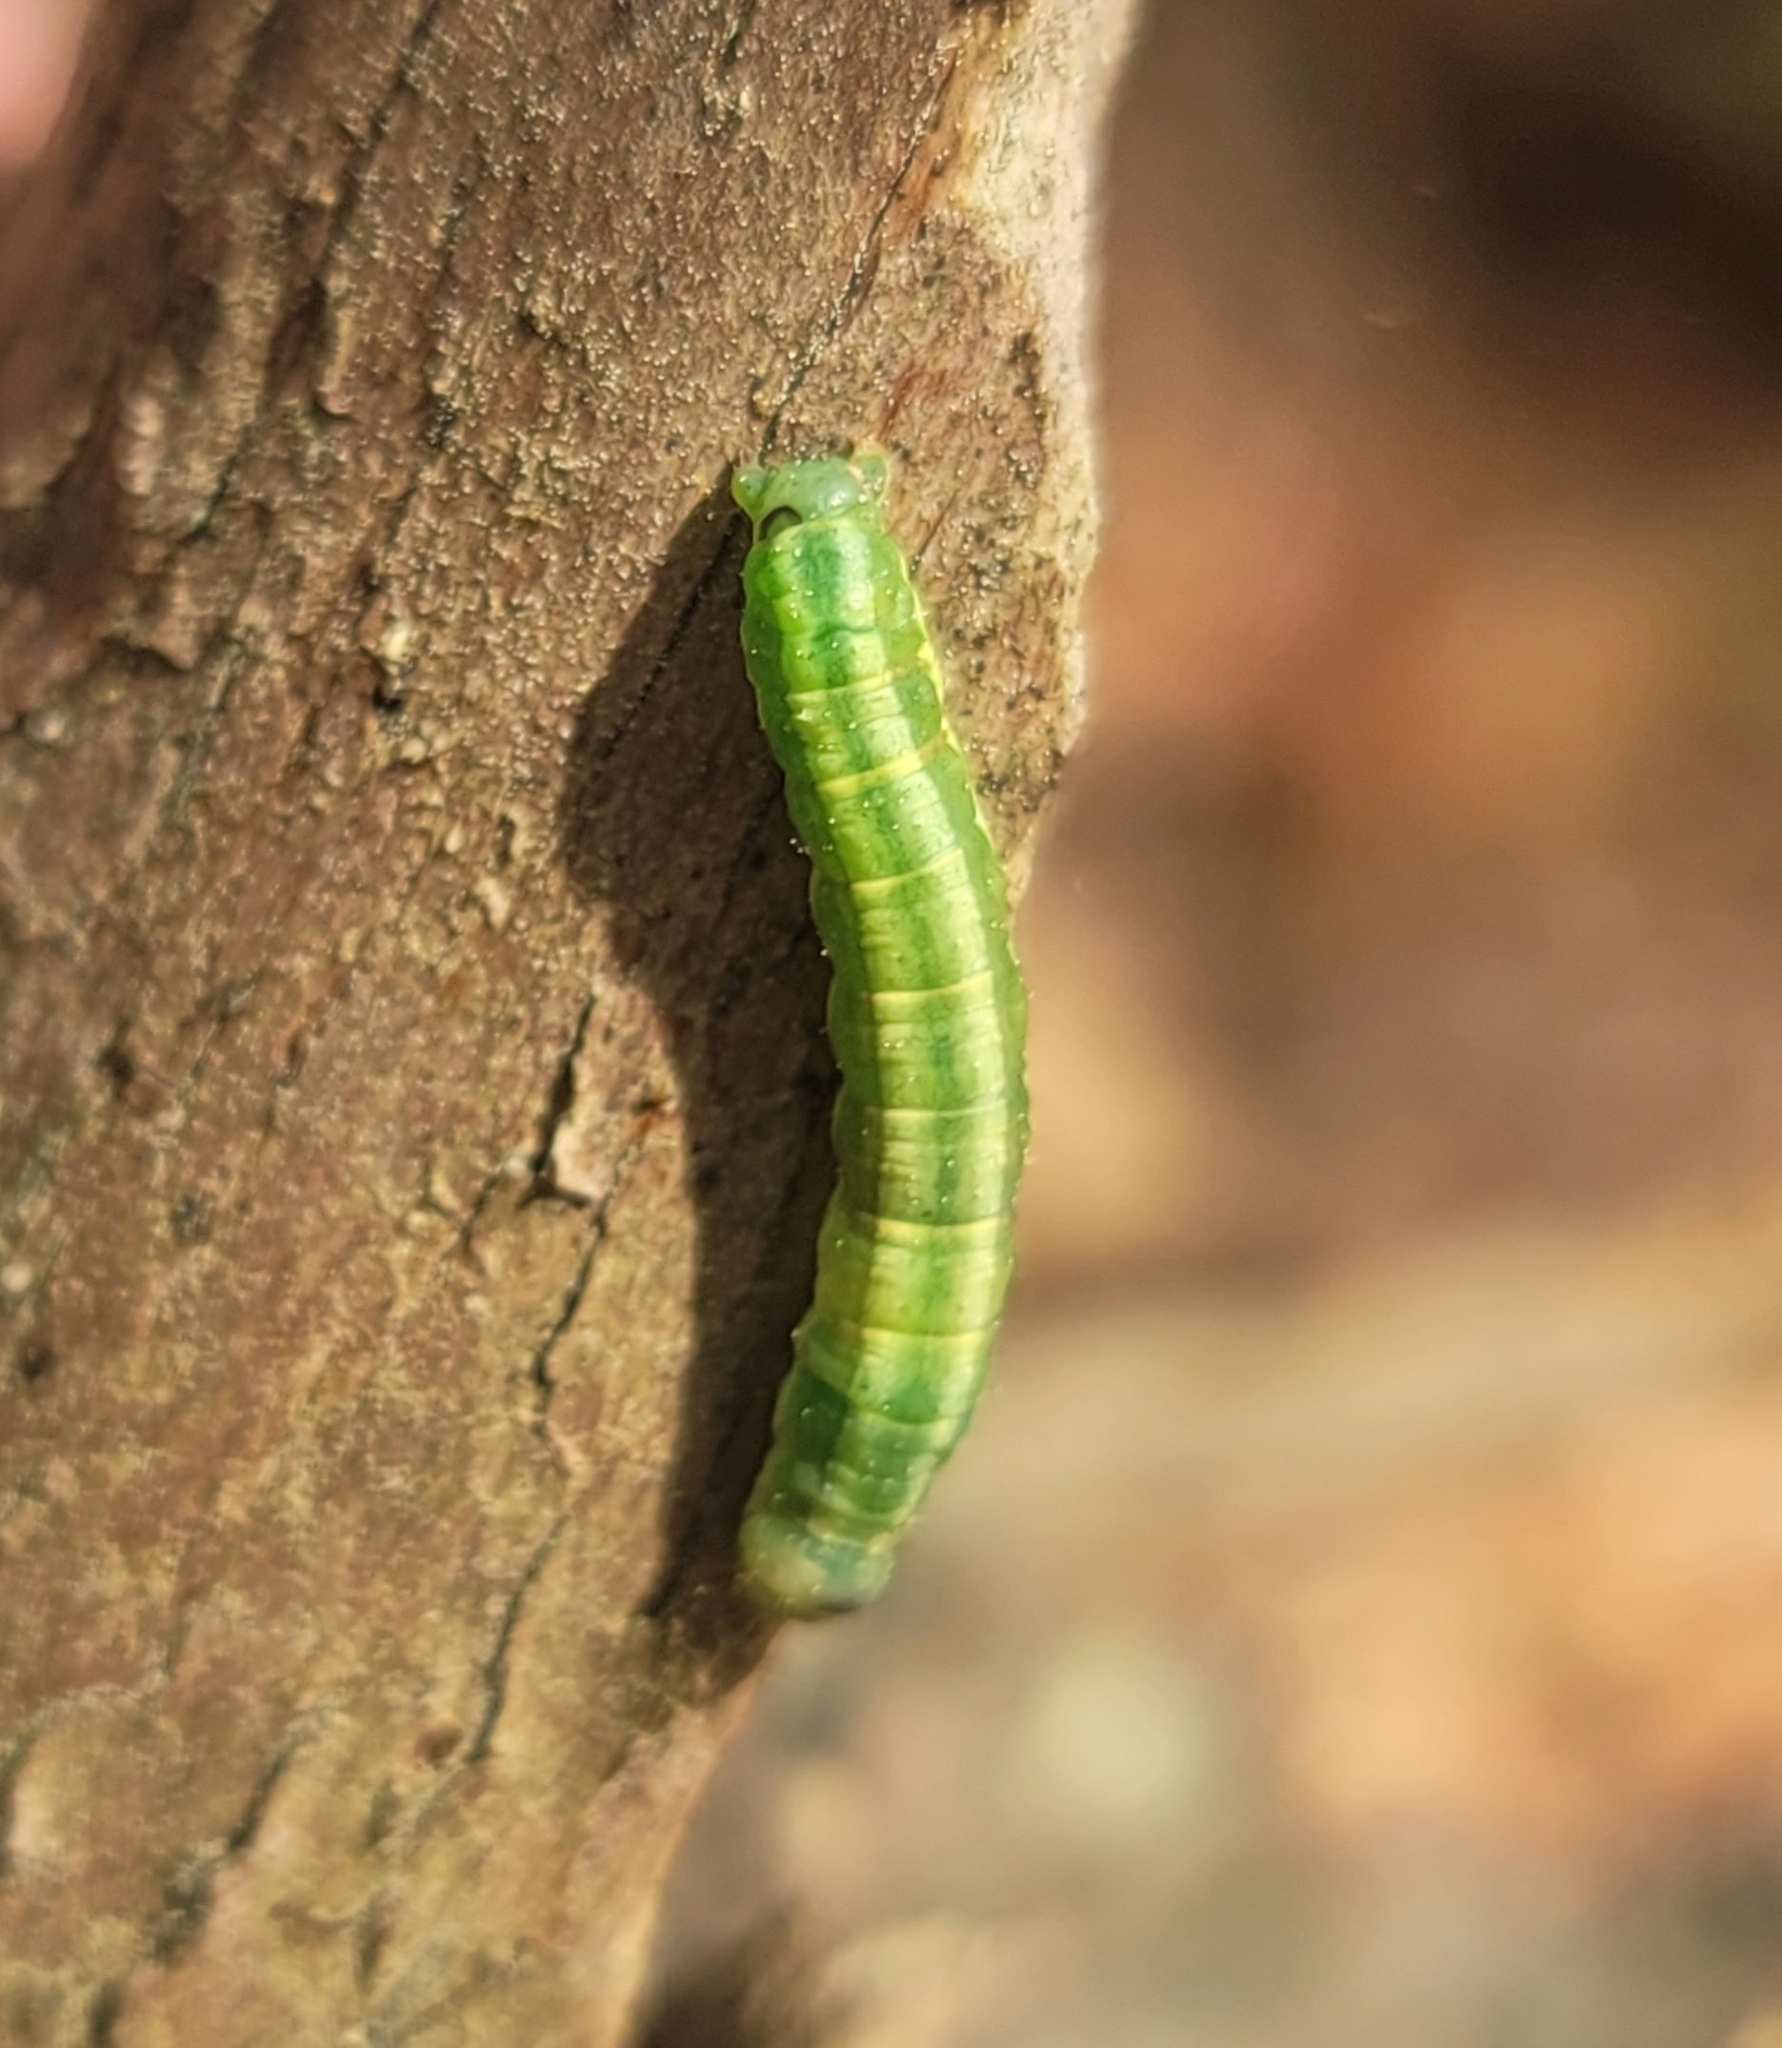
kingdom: Animalia
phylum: Arthropoda
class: Insecta
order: Lepidoptera
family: Notodontidae
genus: Nadata
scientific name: Nadata gibbosa
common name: White-dotted prominent
